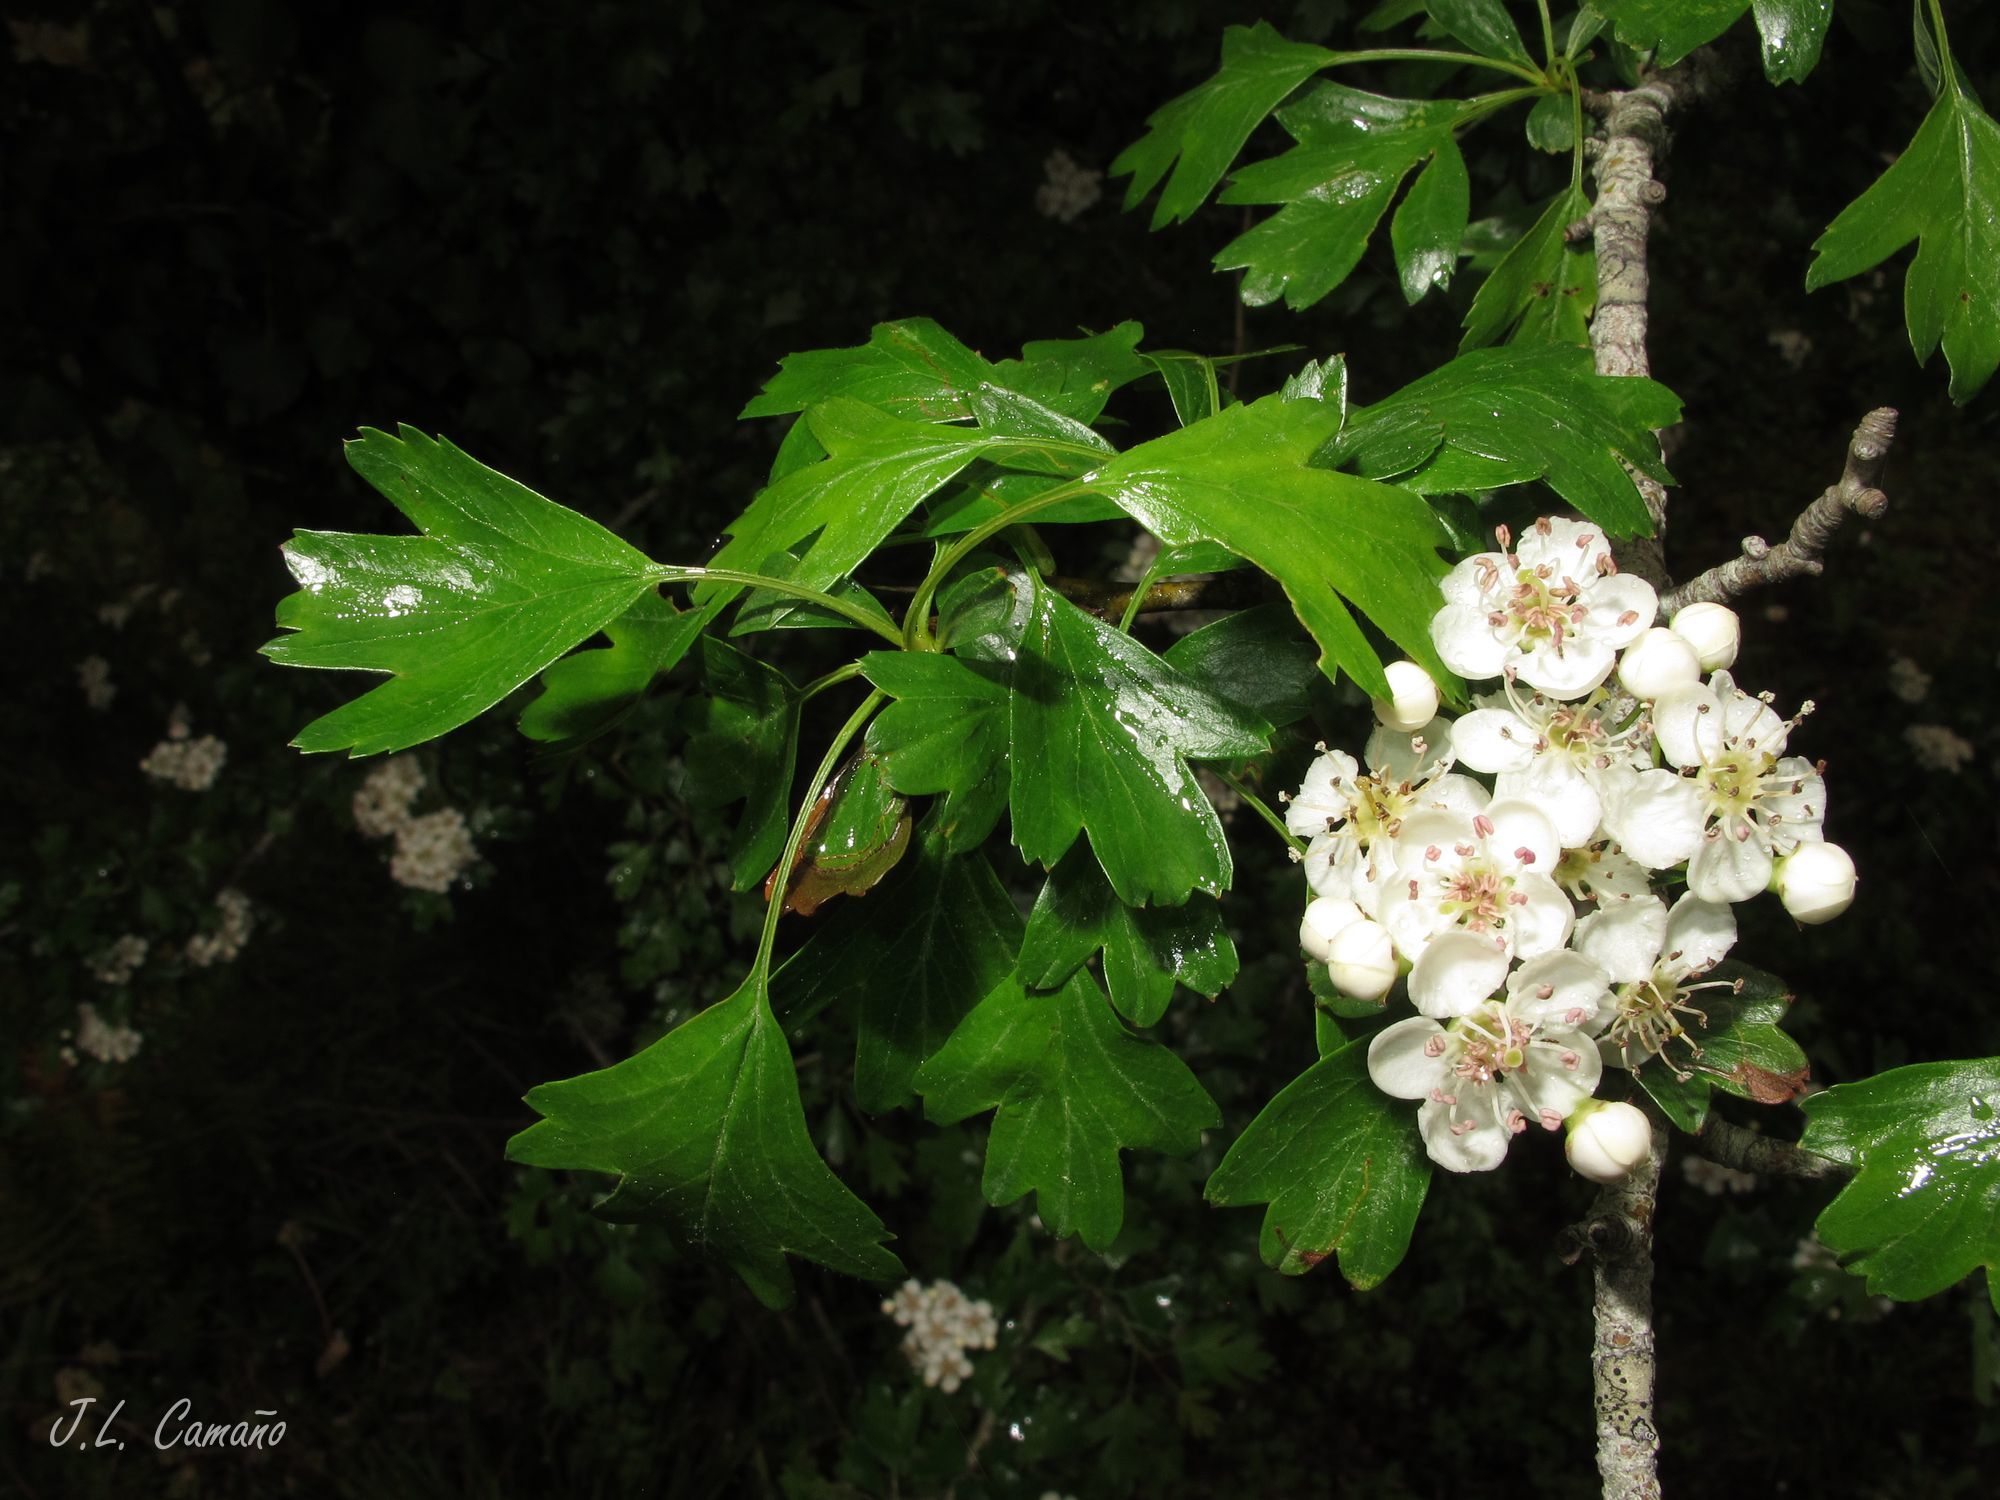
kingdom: Plantae
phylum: Tracheophyta
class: Magnoliopsida
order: Rosales
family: Rosaceae
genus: Crataegus
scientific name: Crataegus monogyna
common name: Hawthorn
